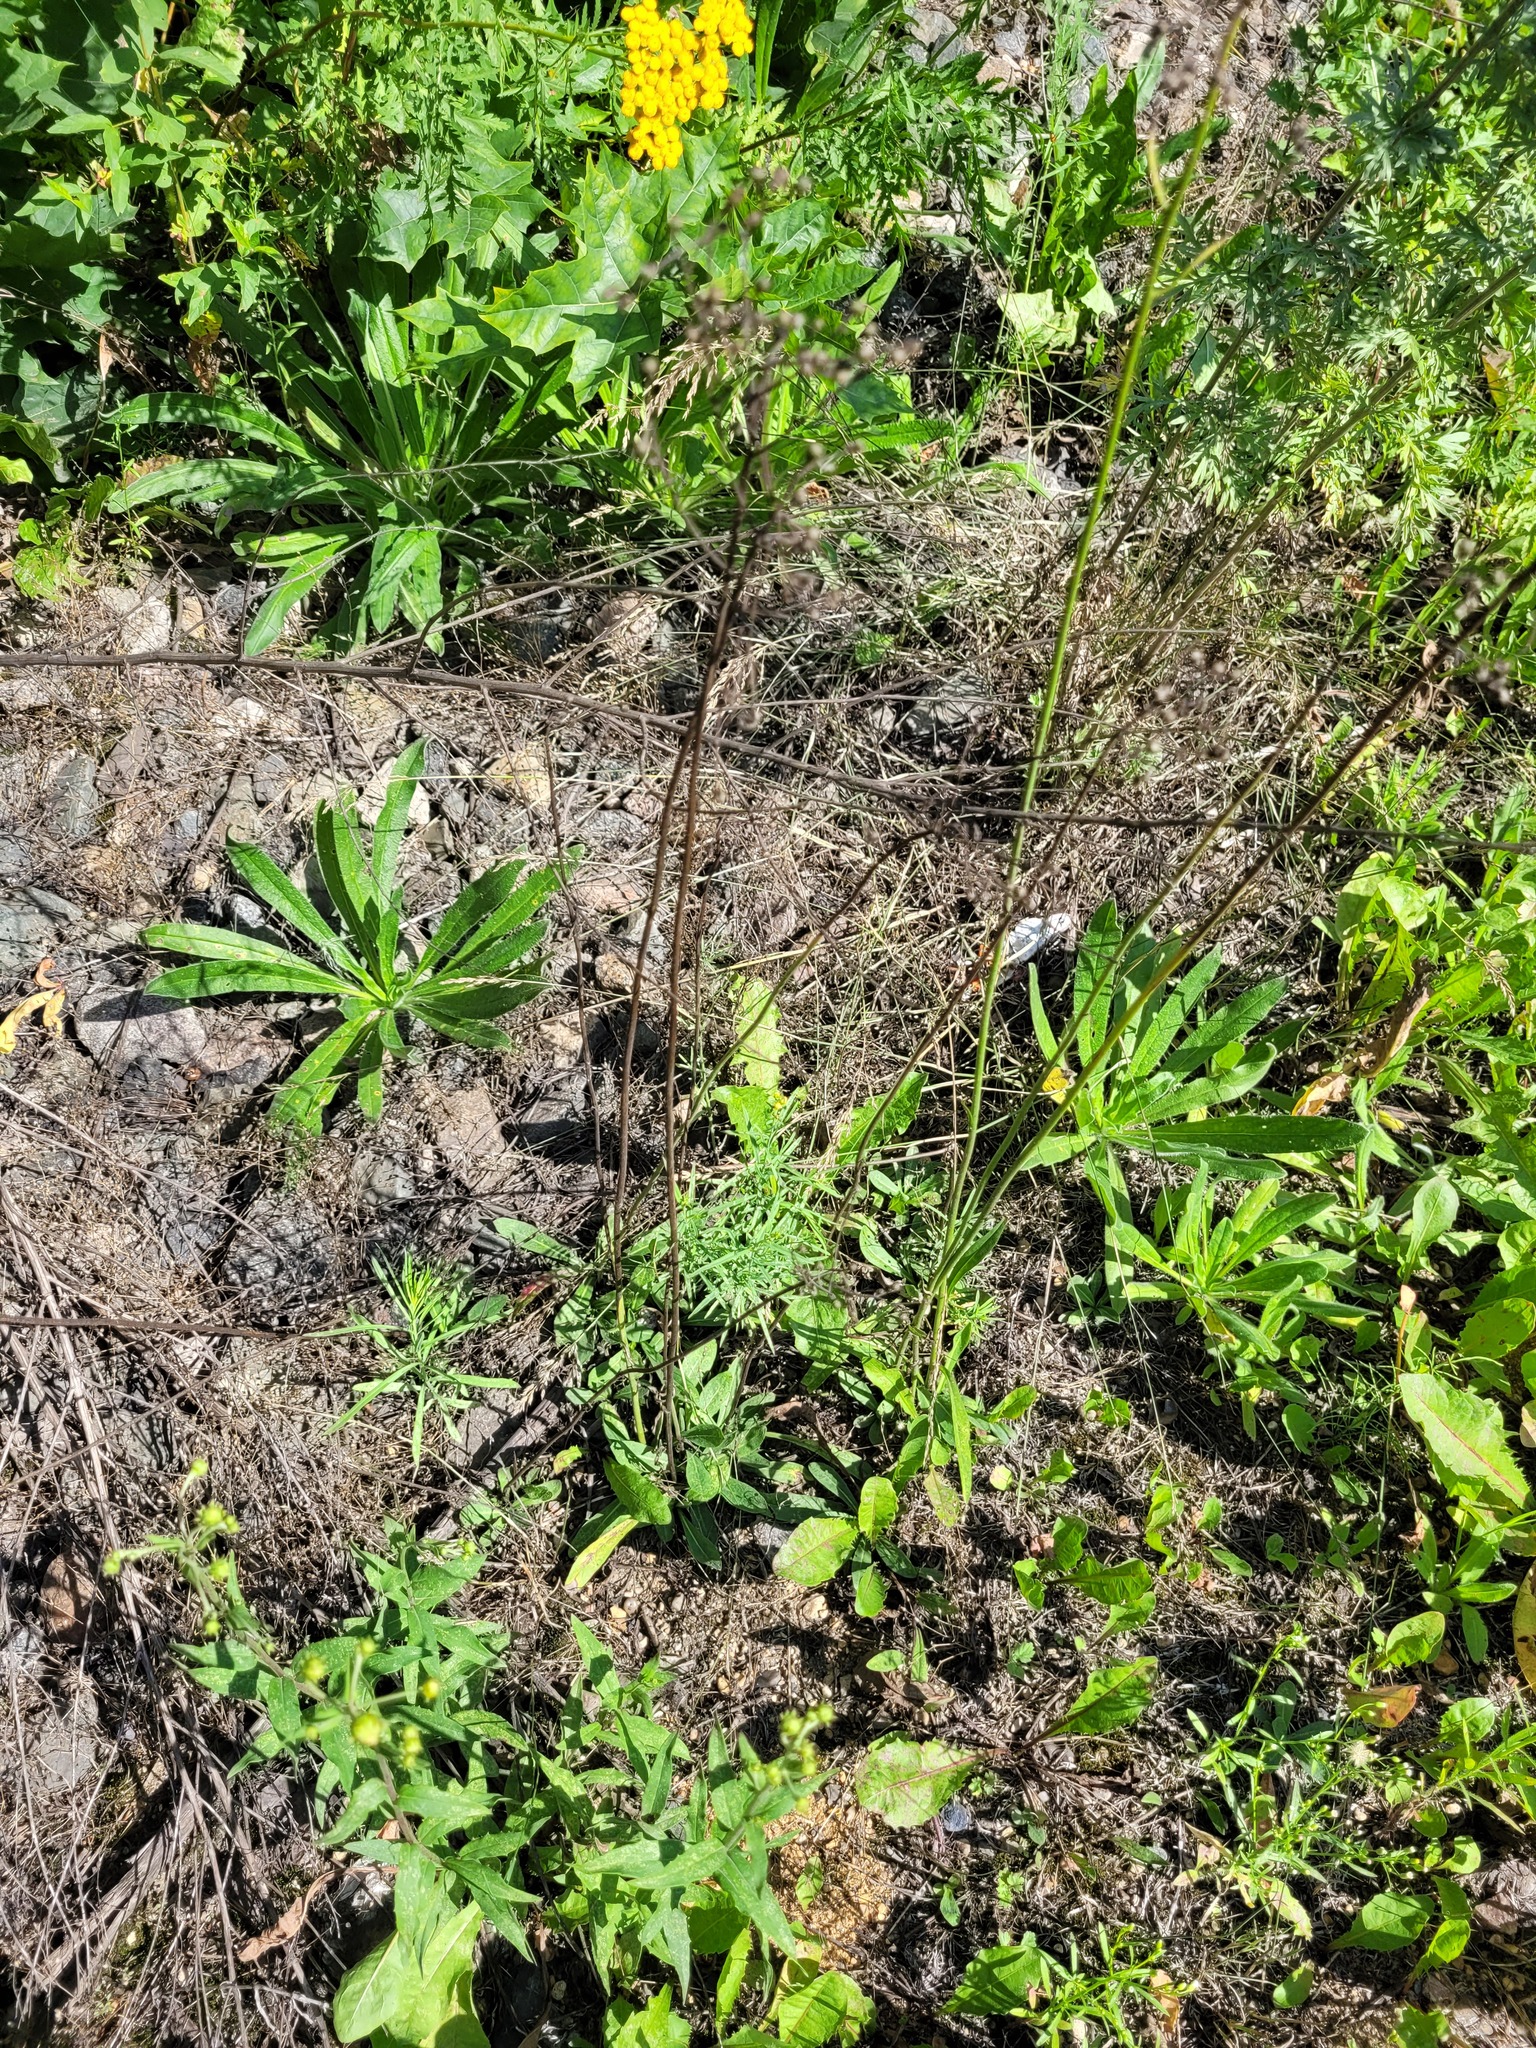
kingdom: Plantae
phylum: Tracheophyta
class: Magnoliopsida
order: Asterales
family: Asteraceae
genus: Pilosella
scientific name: Pilosella
